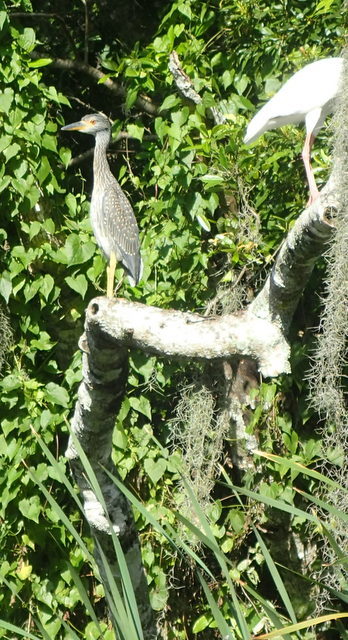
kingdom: Animalia
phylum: Chordata
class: Aves
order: Pelecaniformes
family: Ardeidae
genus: Nyctanassa
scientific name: Nyctanassa violacea
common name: Yellow-crowned night heron
